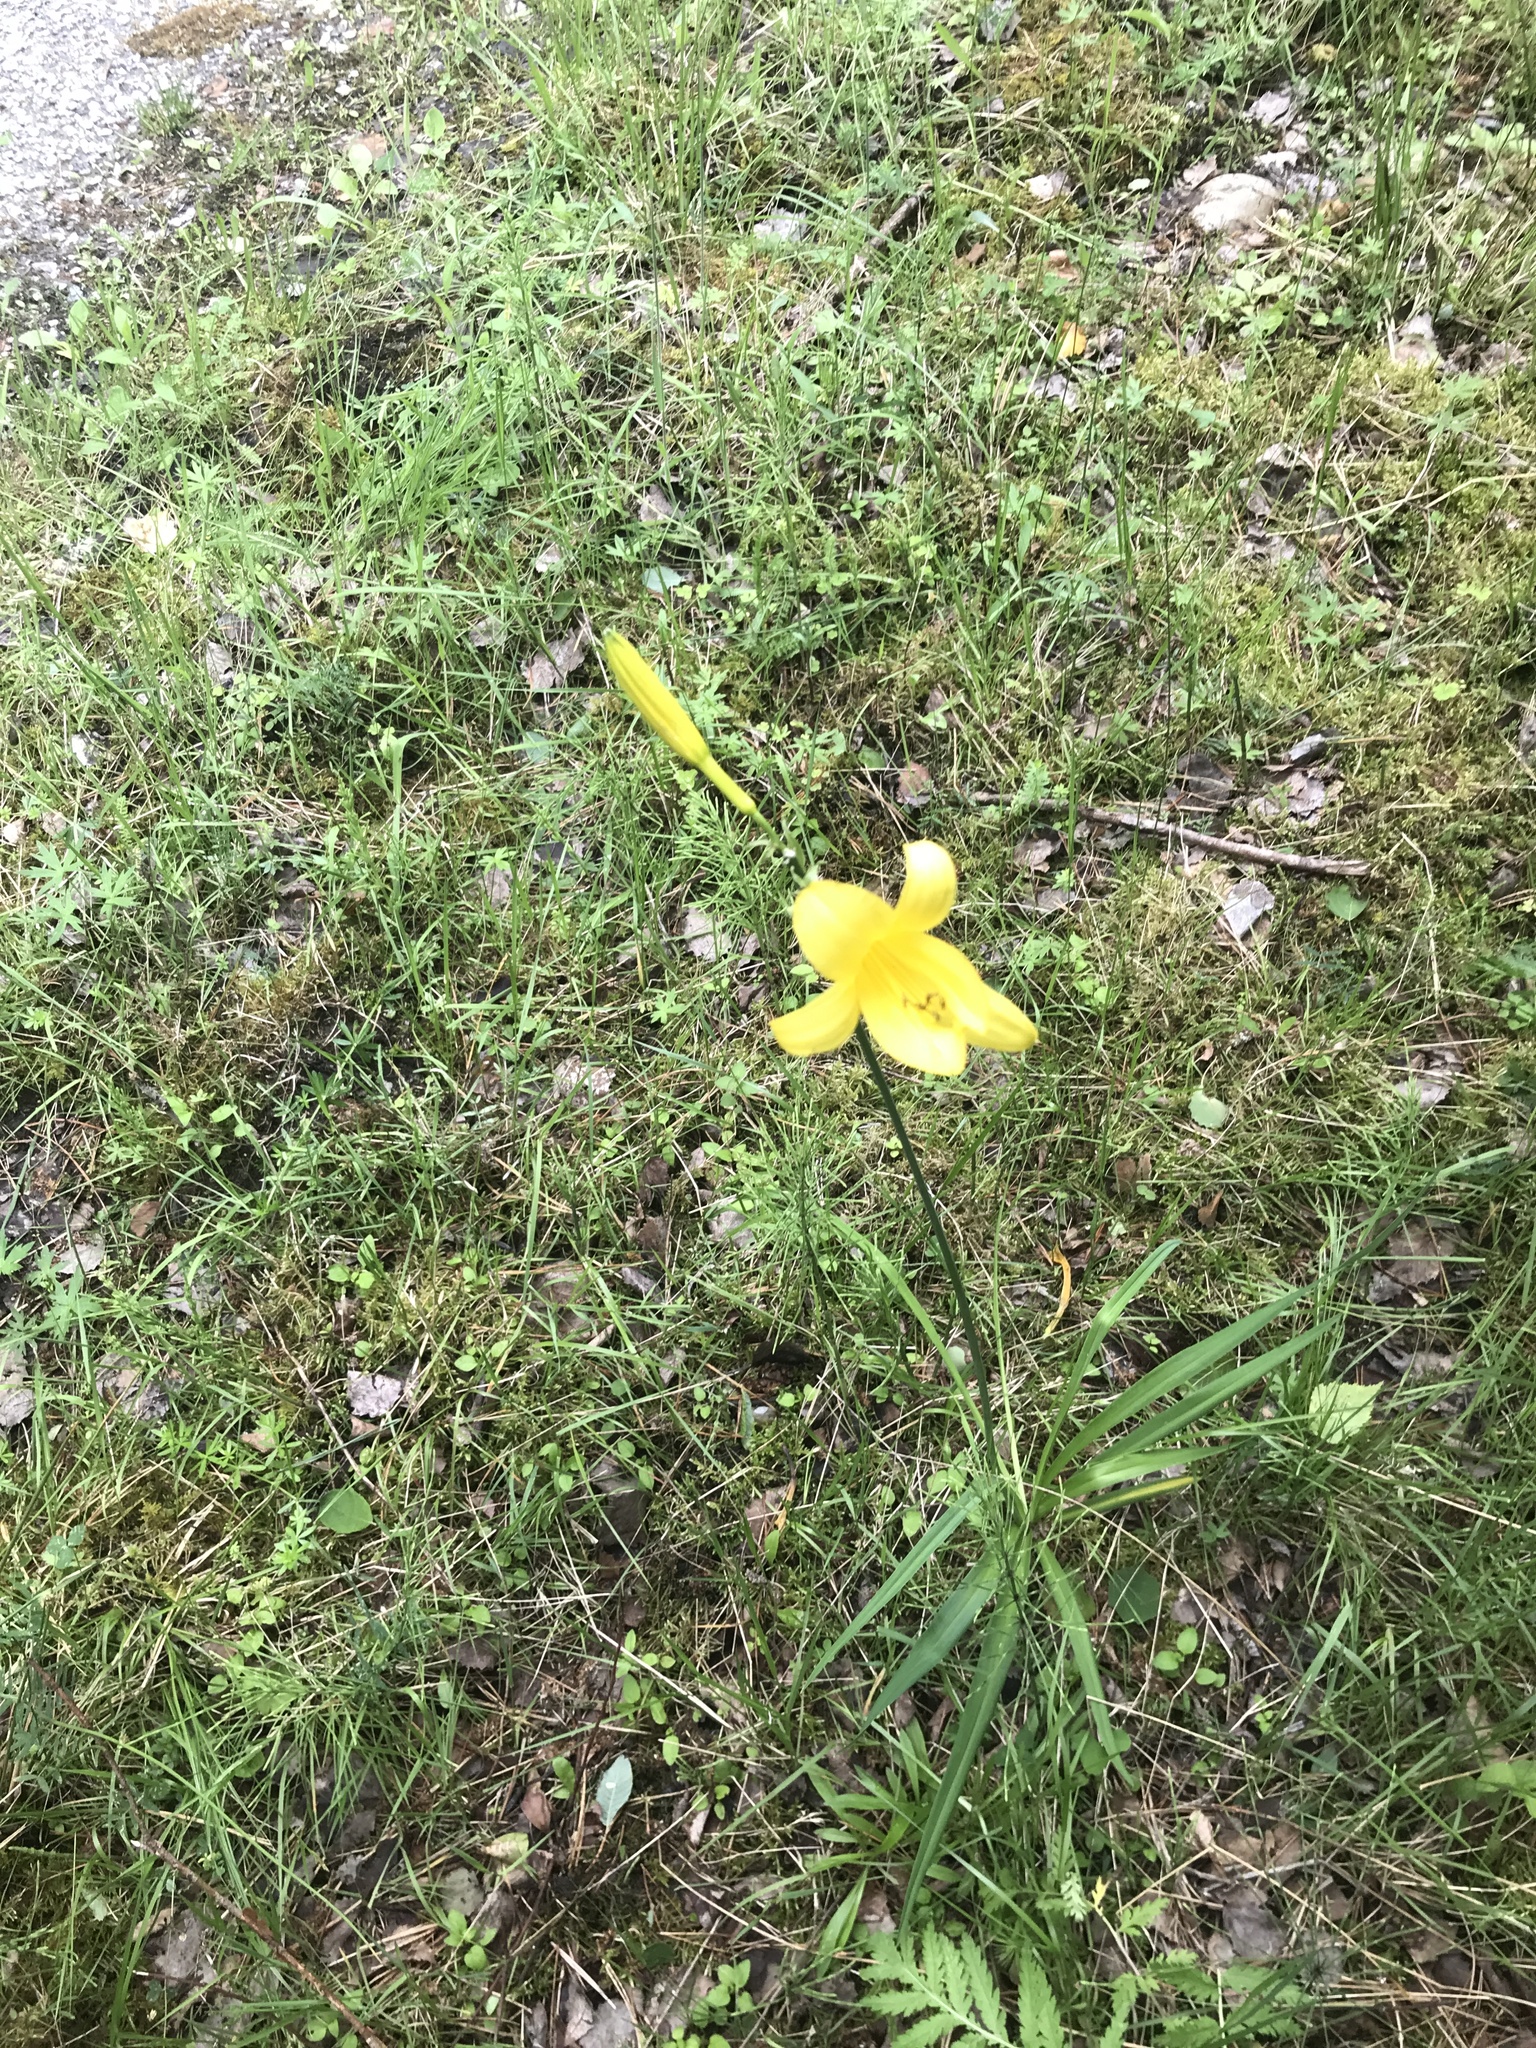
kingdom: Plantae
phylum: Tracheophyta
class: Liliopsida
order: Asparagales
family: Asphodelaceae
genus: Hemerocallis
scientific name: Hemerocallis lilioasphodelus
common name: Yellow day-lily
